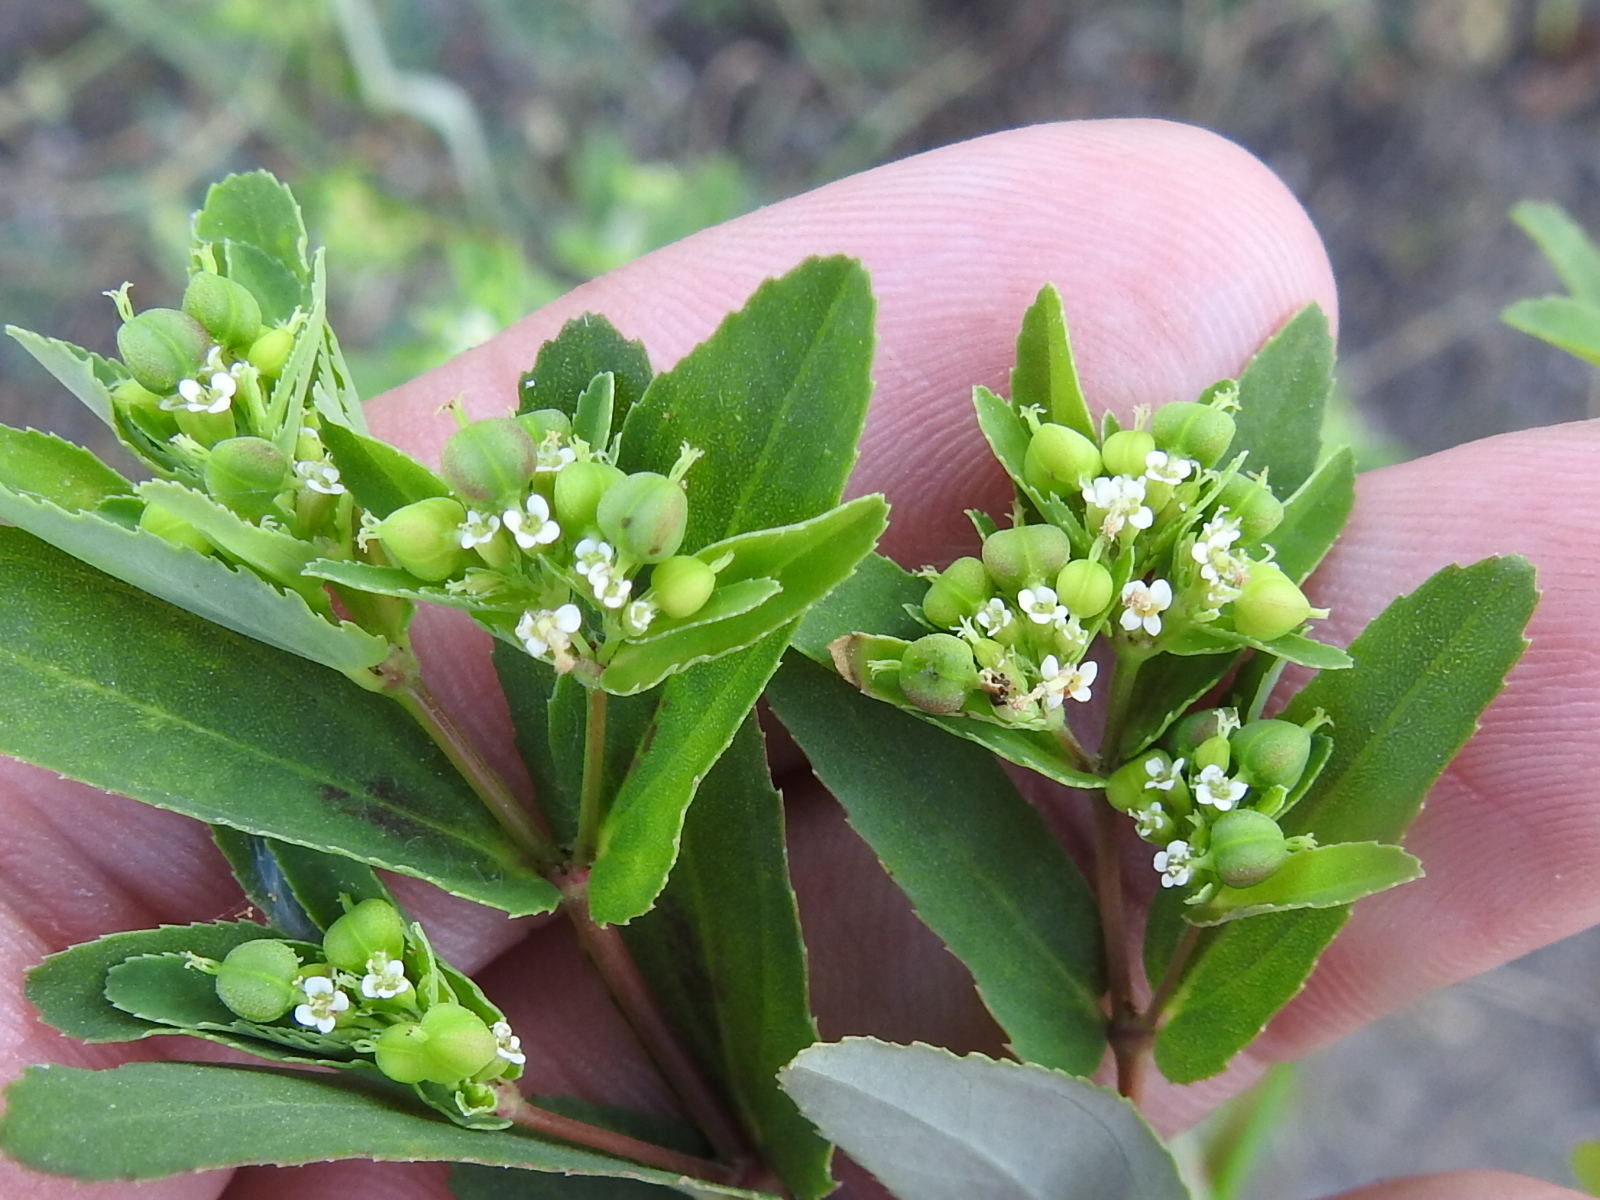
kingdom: Plantae
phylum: Tracheophyta
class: Magnoliopsida
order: Malpighiales
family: Euphorbiaceae
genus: Euphorbia
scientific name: Euphorbia nutans
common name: Eyebane
